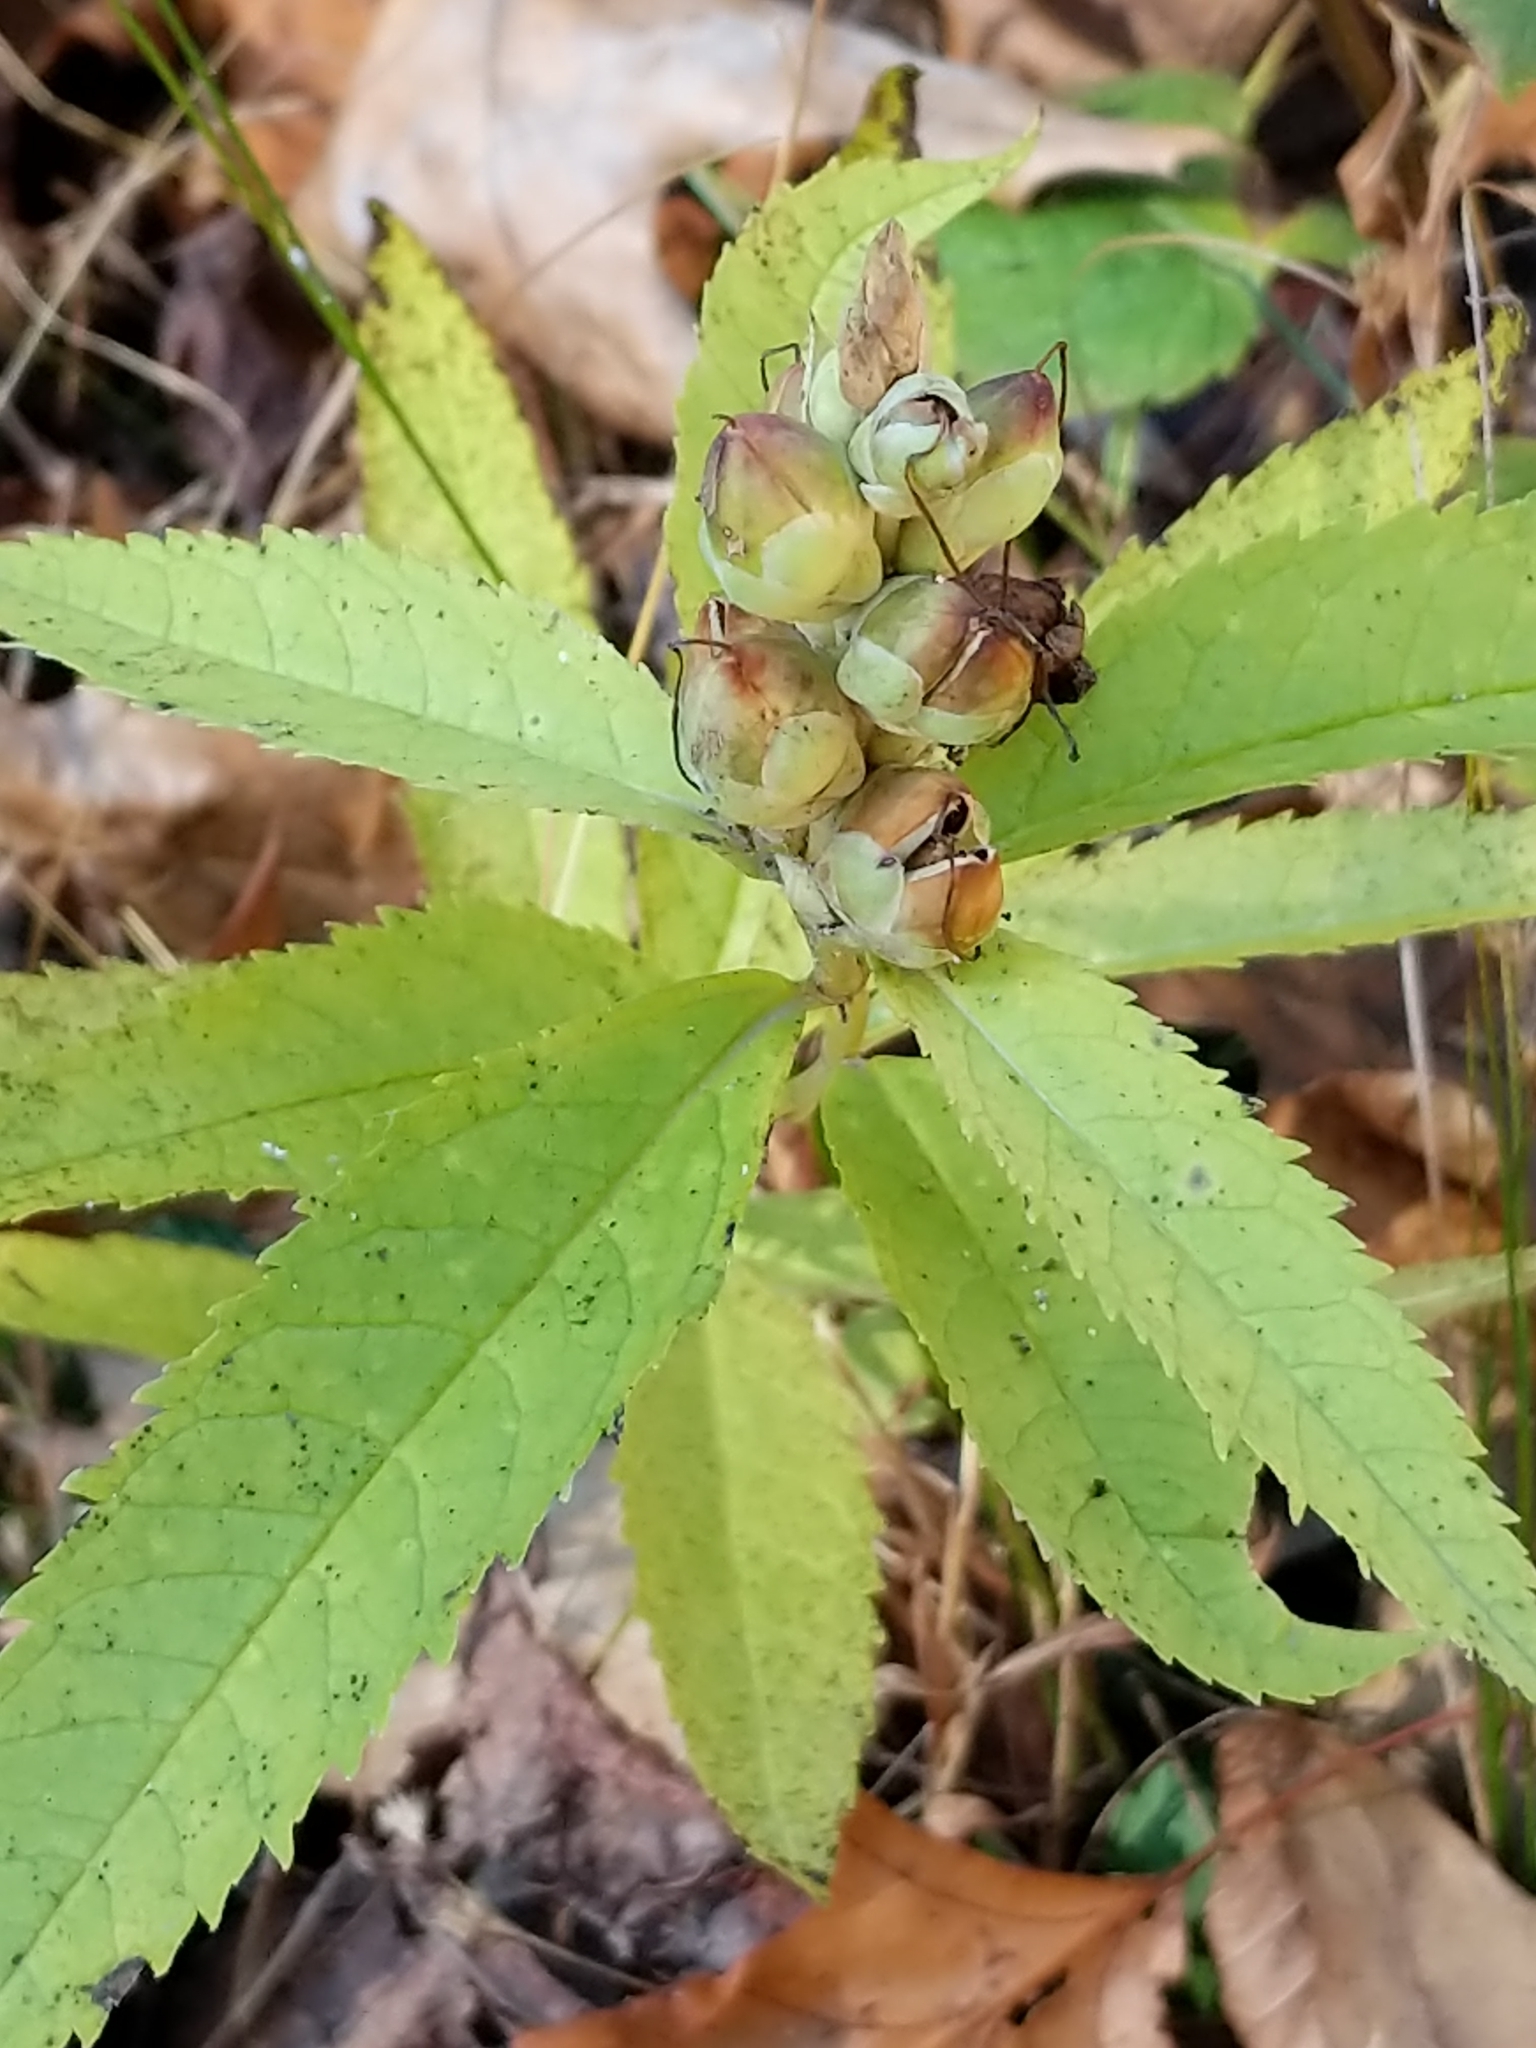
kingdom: Plantae
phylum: Tracheophyta
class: Magnoliopsida
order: Lamiales
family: Plantaginaceae
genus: Chelone
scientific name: Chelone glabra
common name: Snakehead
